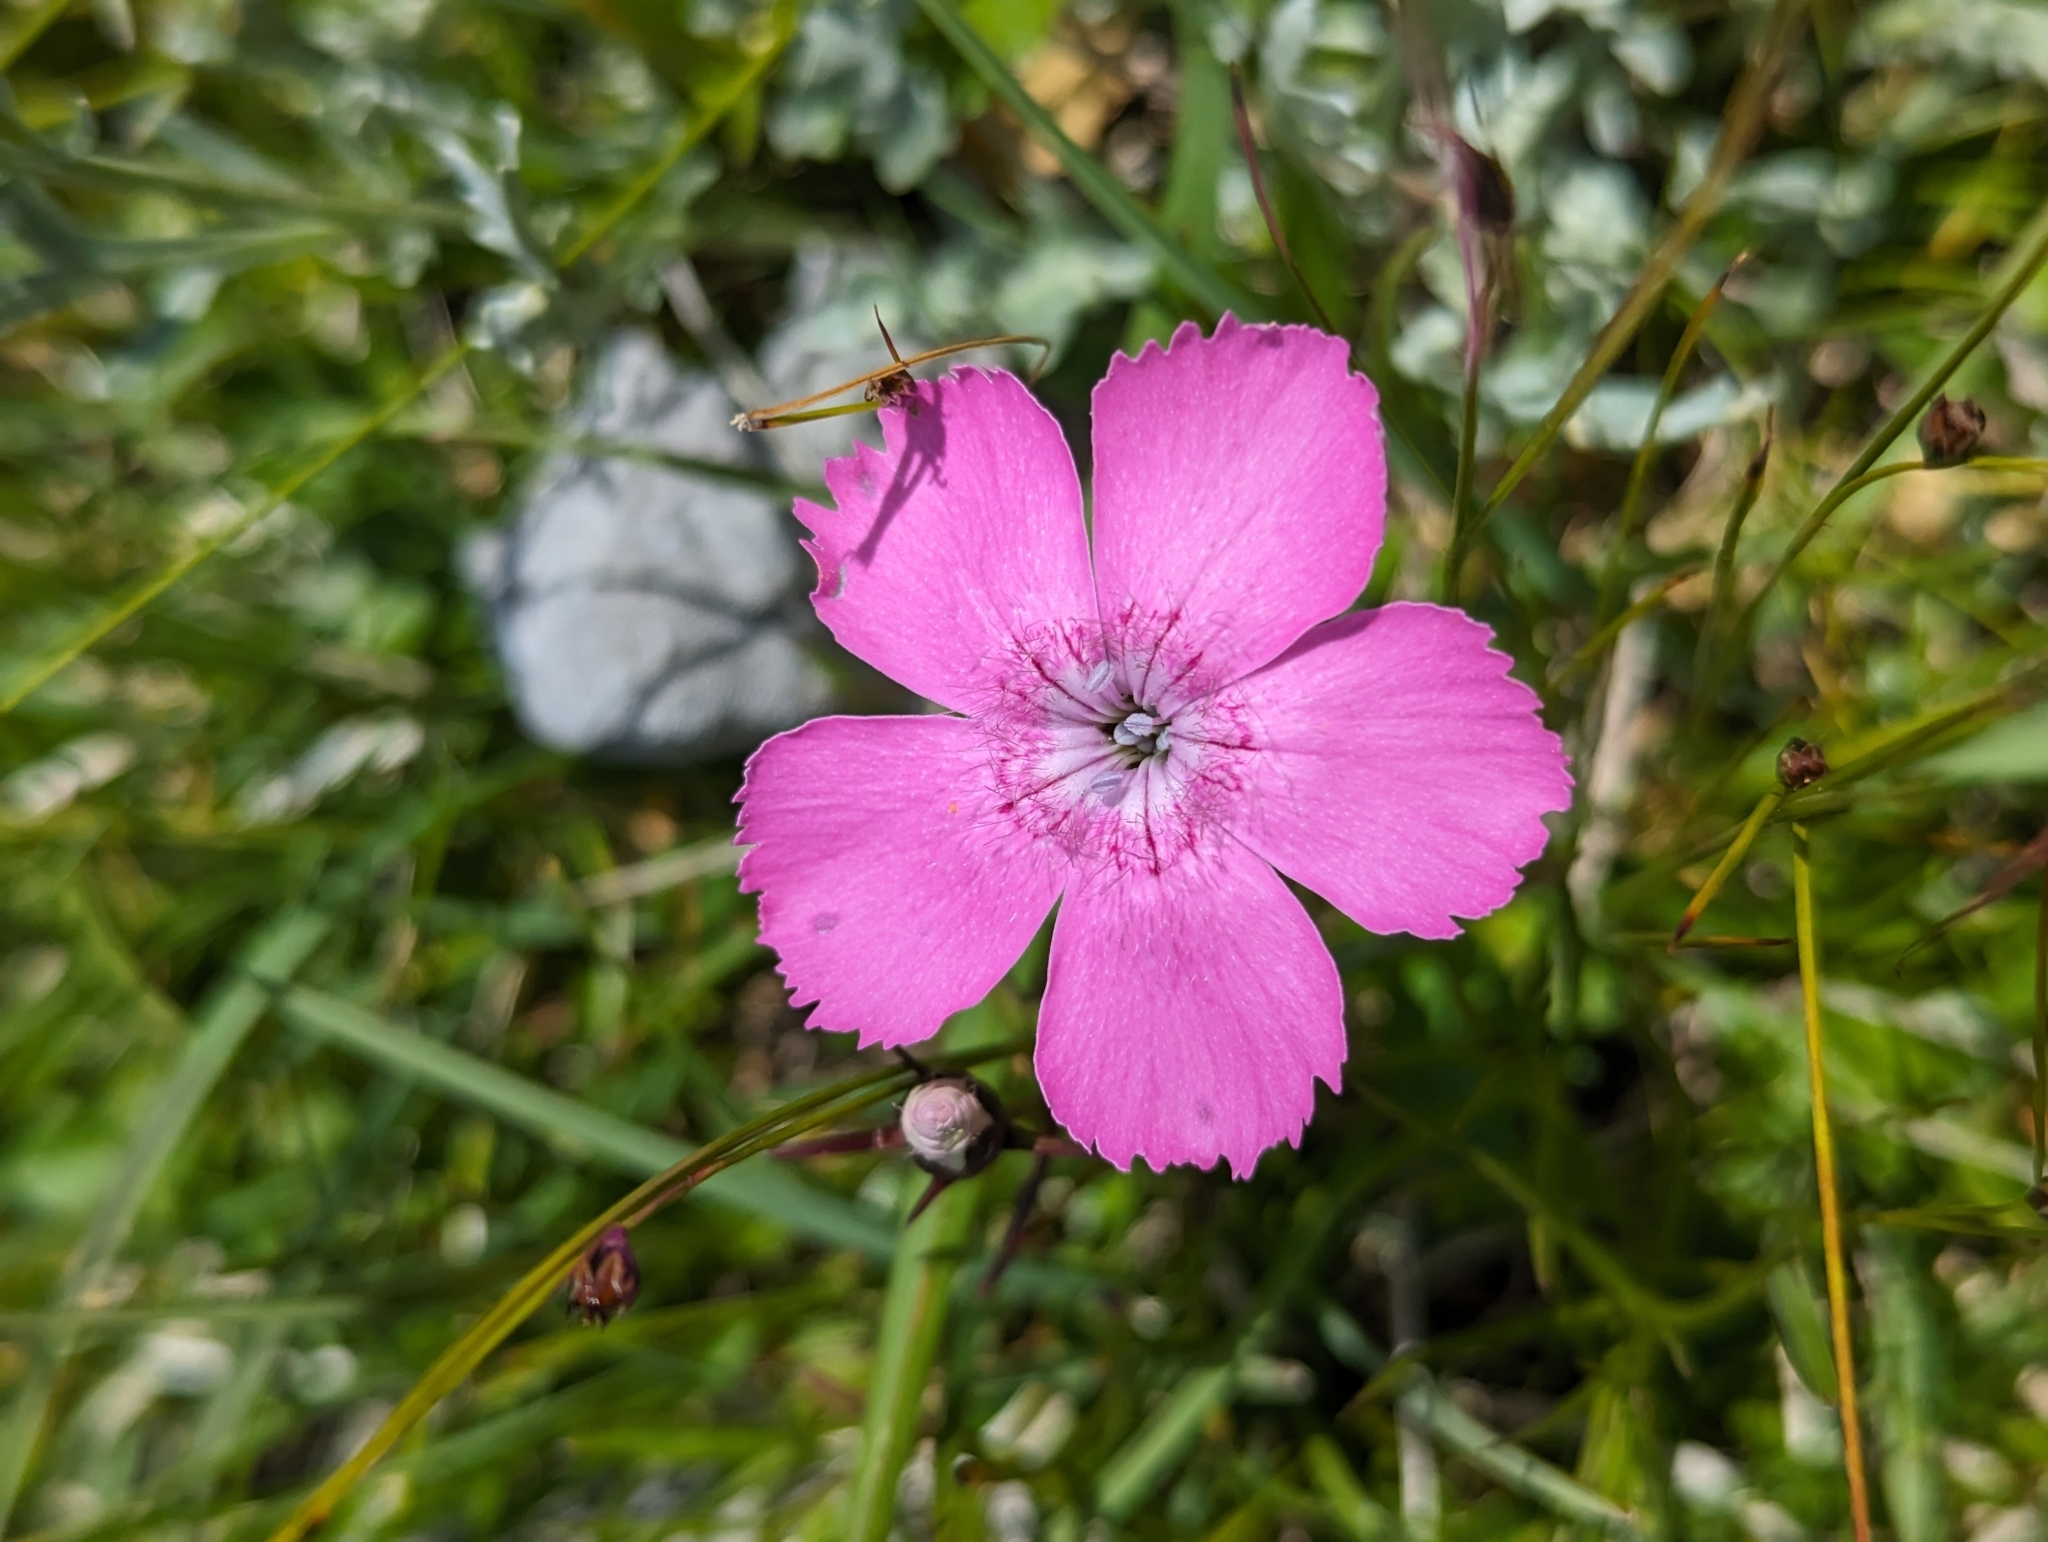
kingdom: Plantae
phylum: Tracheophyta
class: Magnoliopsida
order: Caryophyllales
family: Caryophyllaceae
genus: Dianthus
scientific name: Dianthus alpinus
